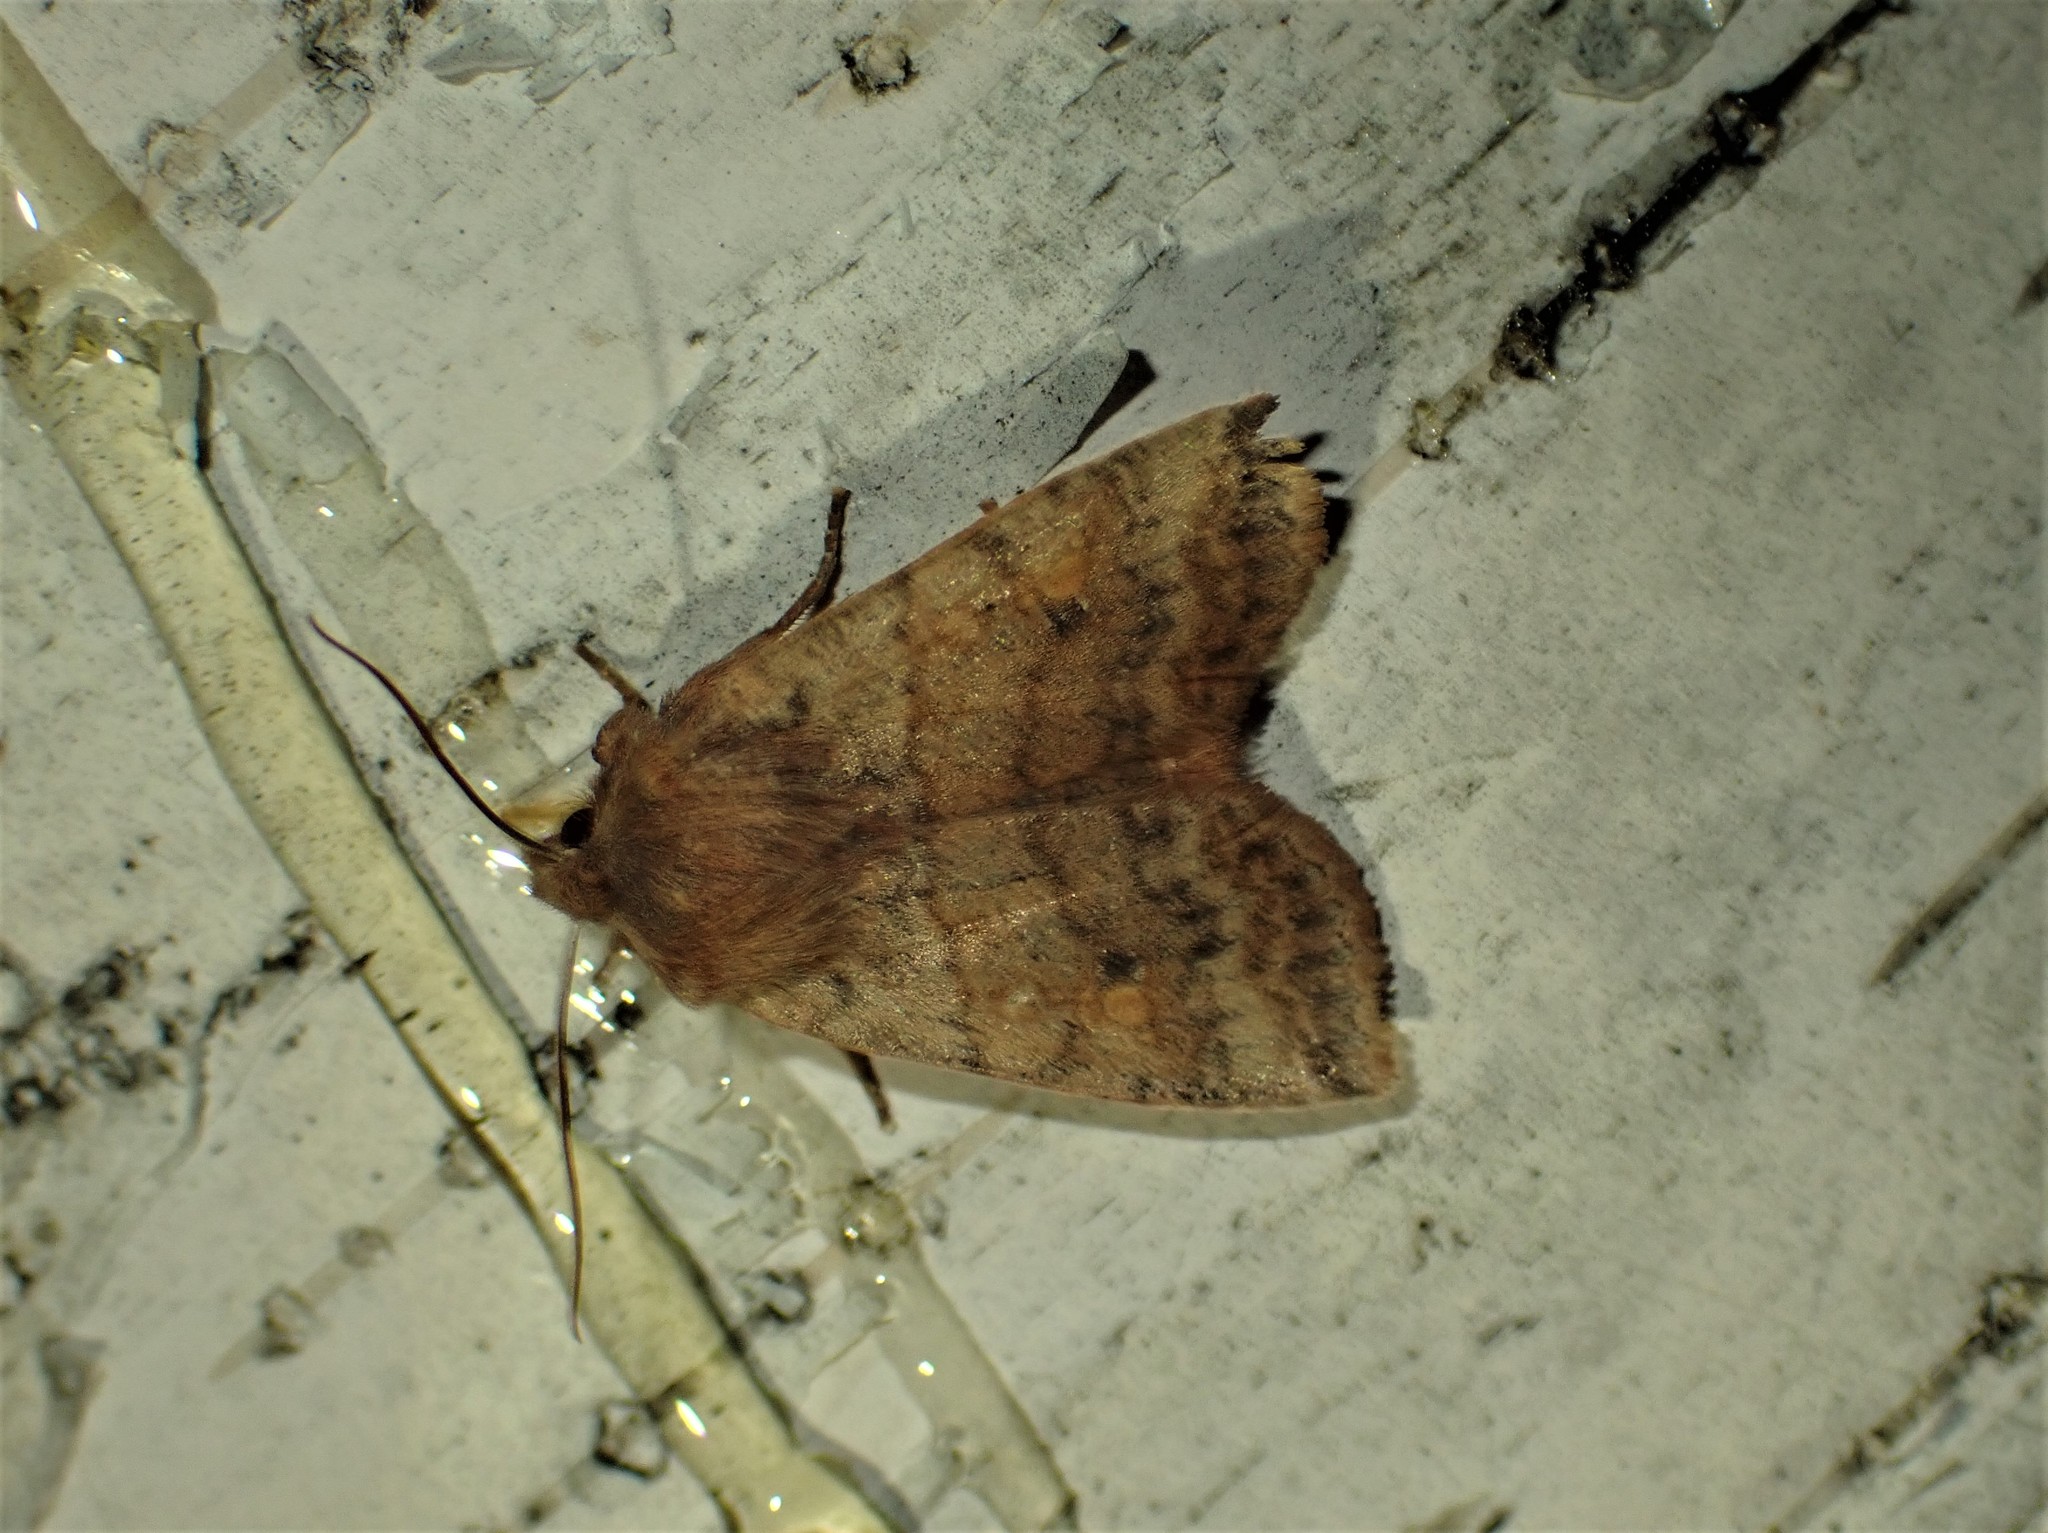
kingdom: Animalia
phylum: Arthropoda
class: Insecta
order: Lepidoptera
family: Noctuidae
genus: Eupsilia
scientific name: Eupsilia tristigmata
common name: Three-spotted sallow
